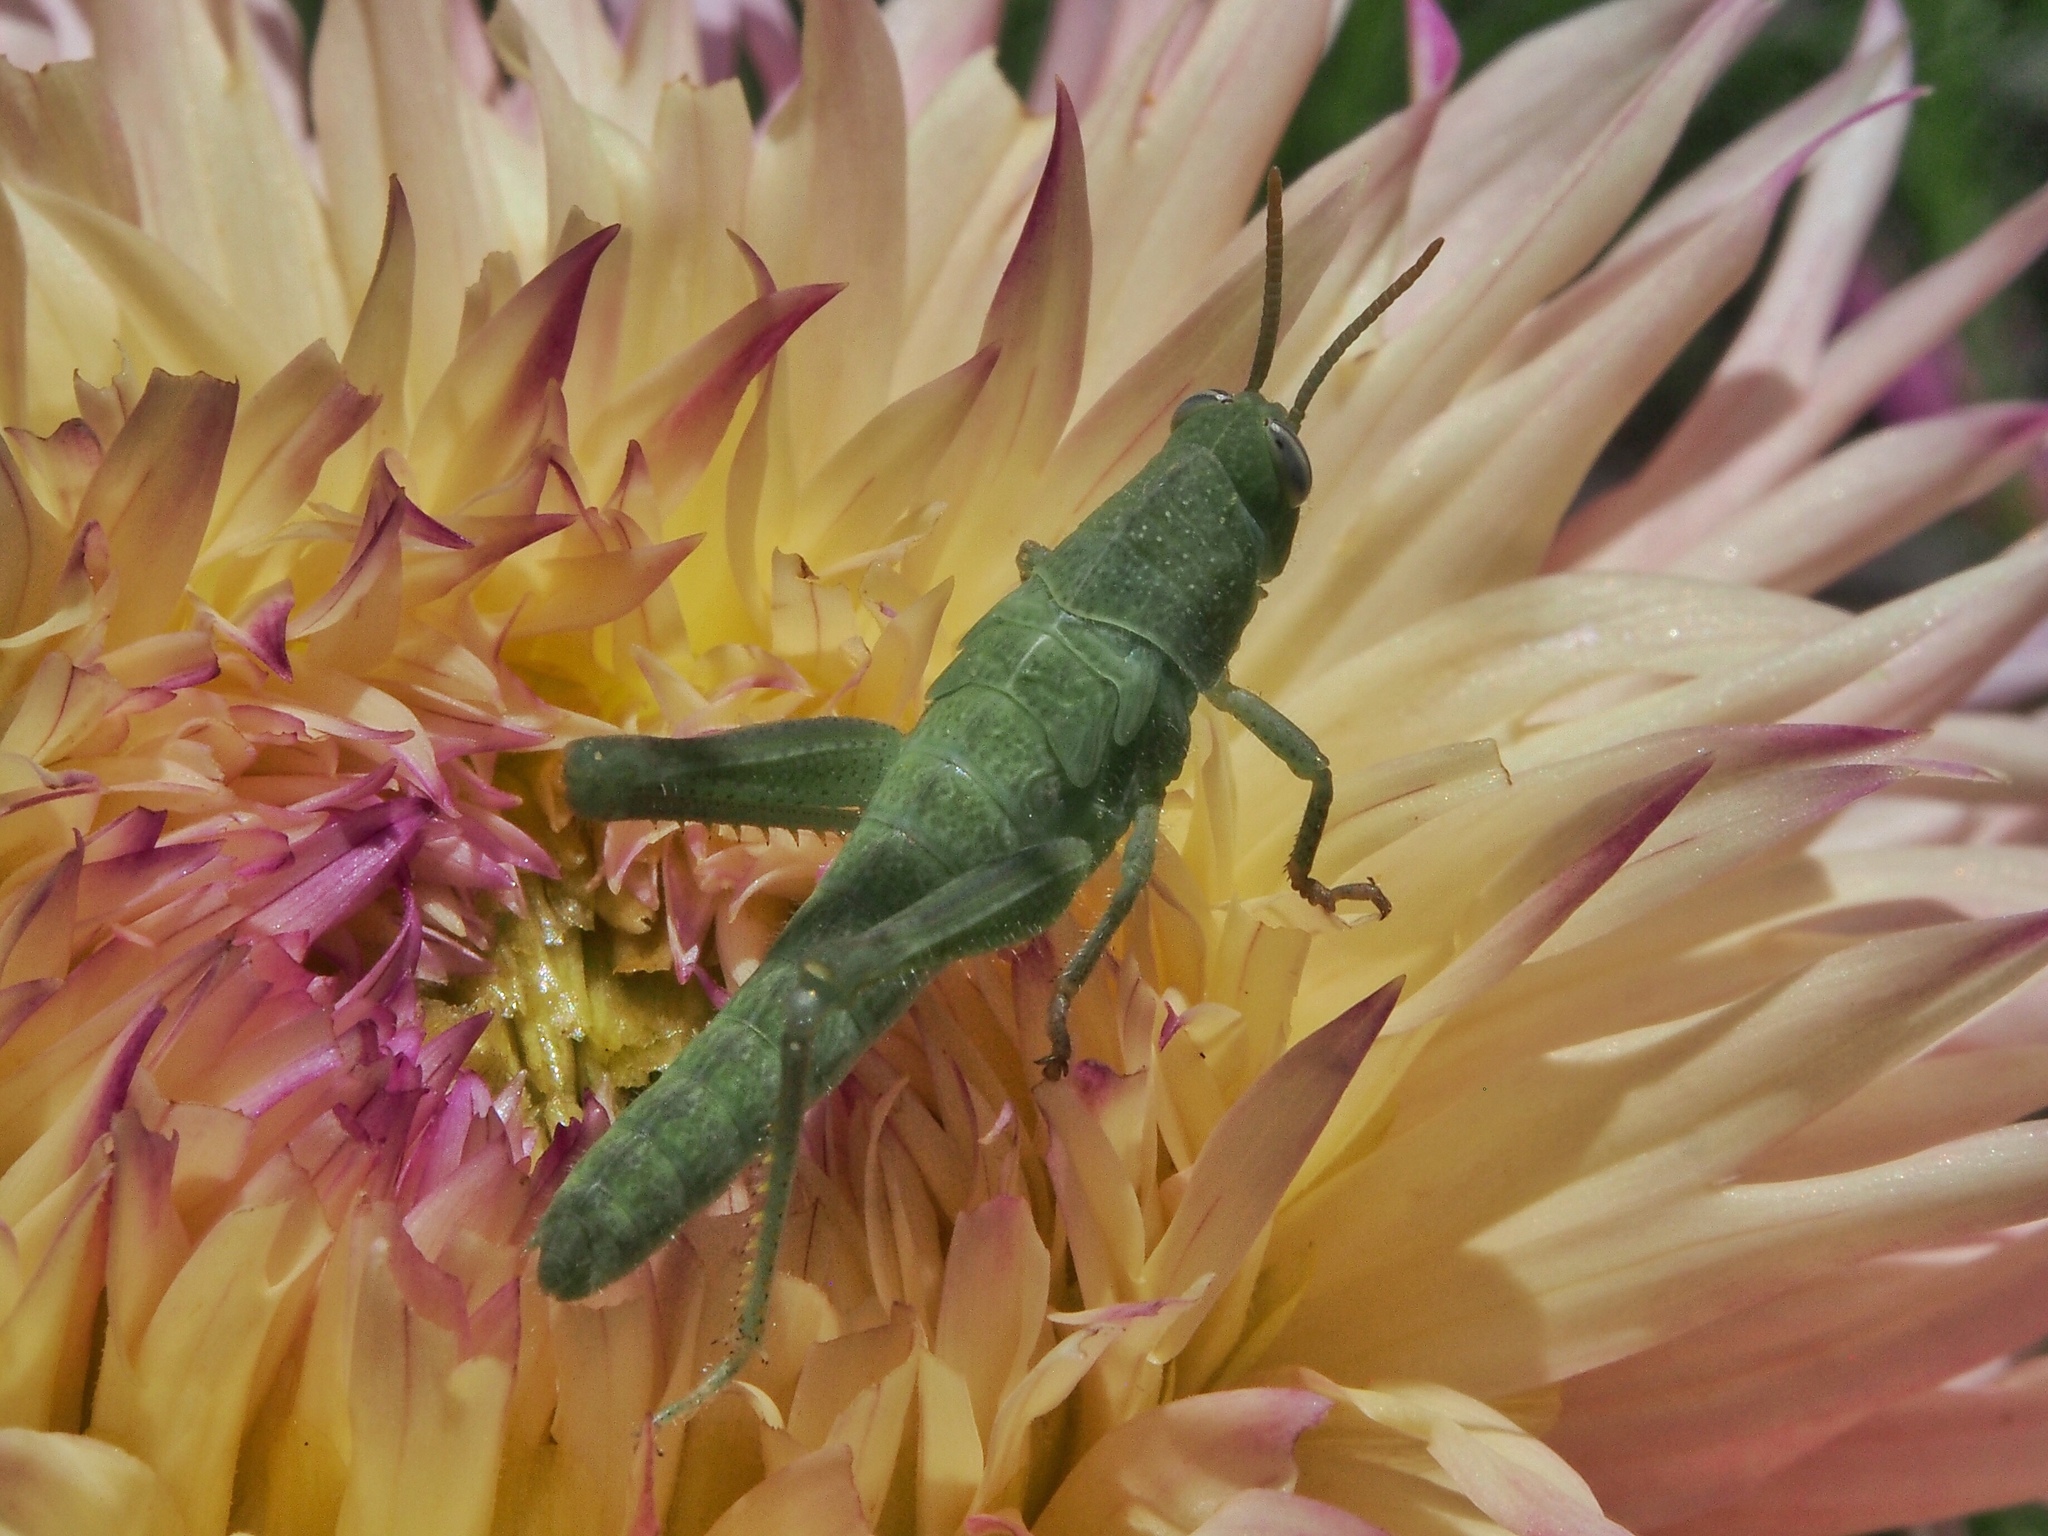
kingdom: Animalia
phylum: Arthropoda
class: Insecta
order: Orthoptera
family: Acrididae
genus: Schistocerca
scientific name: Schistocerca nitens
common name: Vagrant grasshopper
